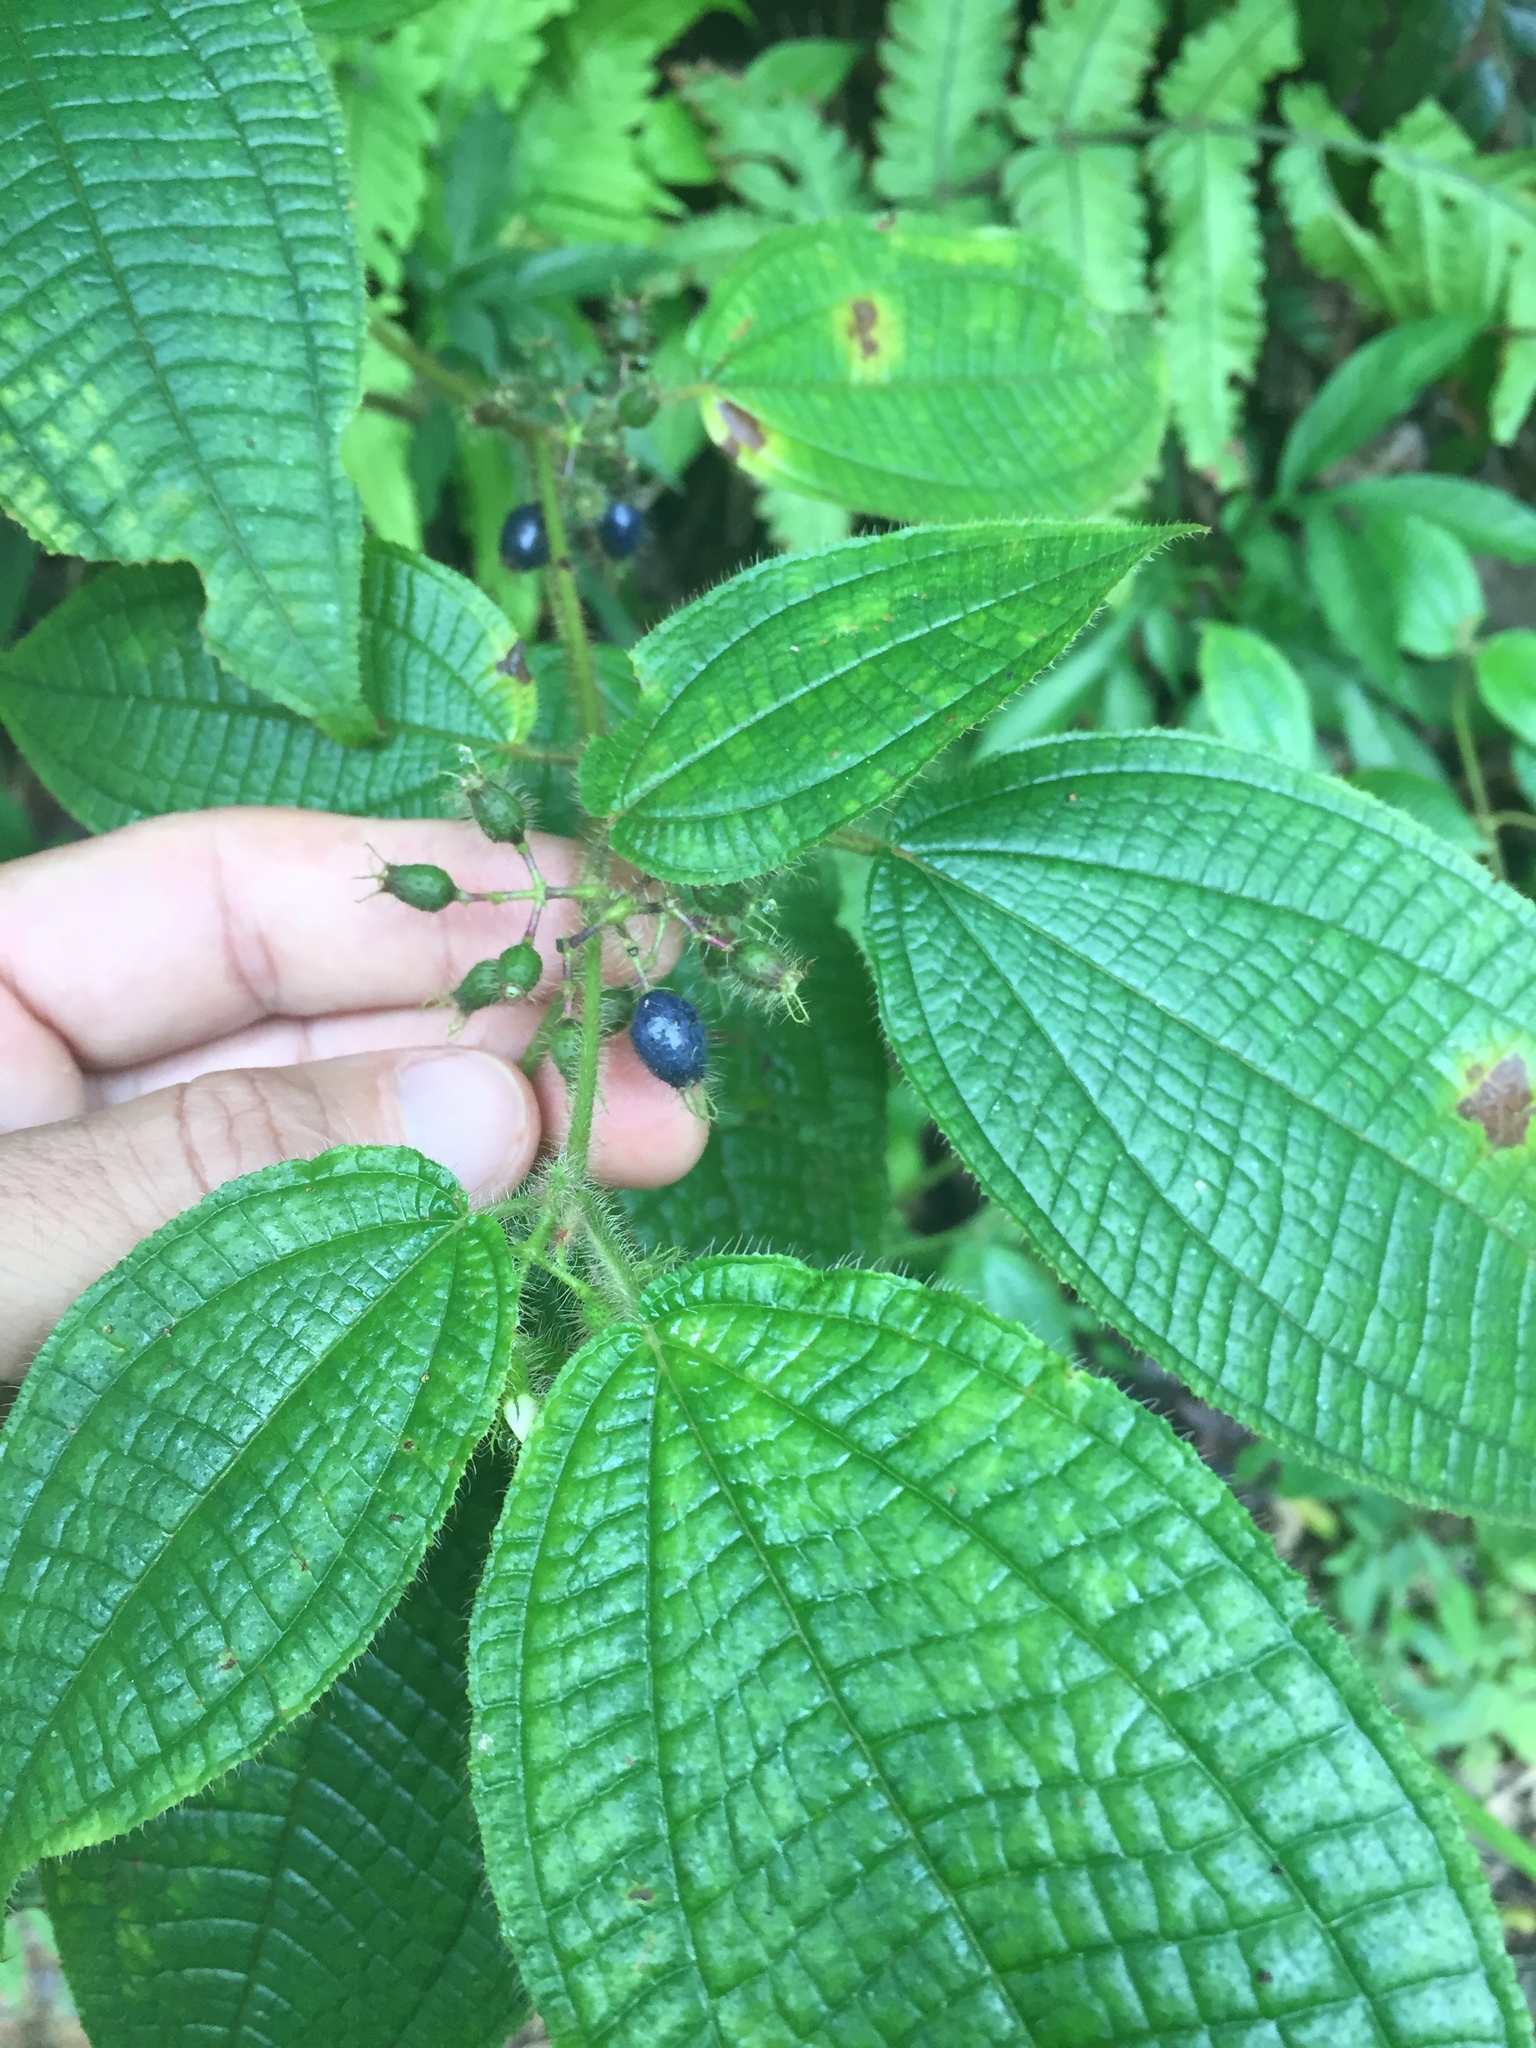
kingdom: Plantae
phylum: Tracheophyta
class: Magnoliopsida
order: Myrtales
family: Melastomataceae
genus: Miconia
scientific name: Miconia crenata
